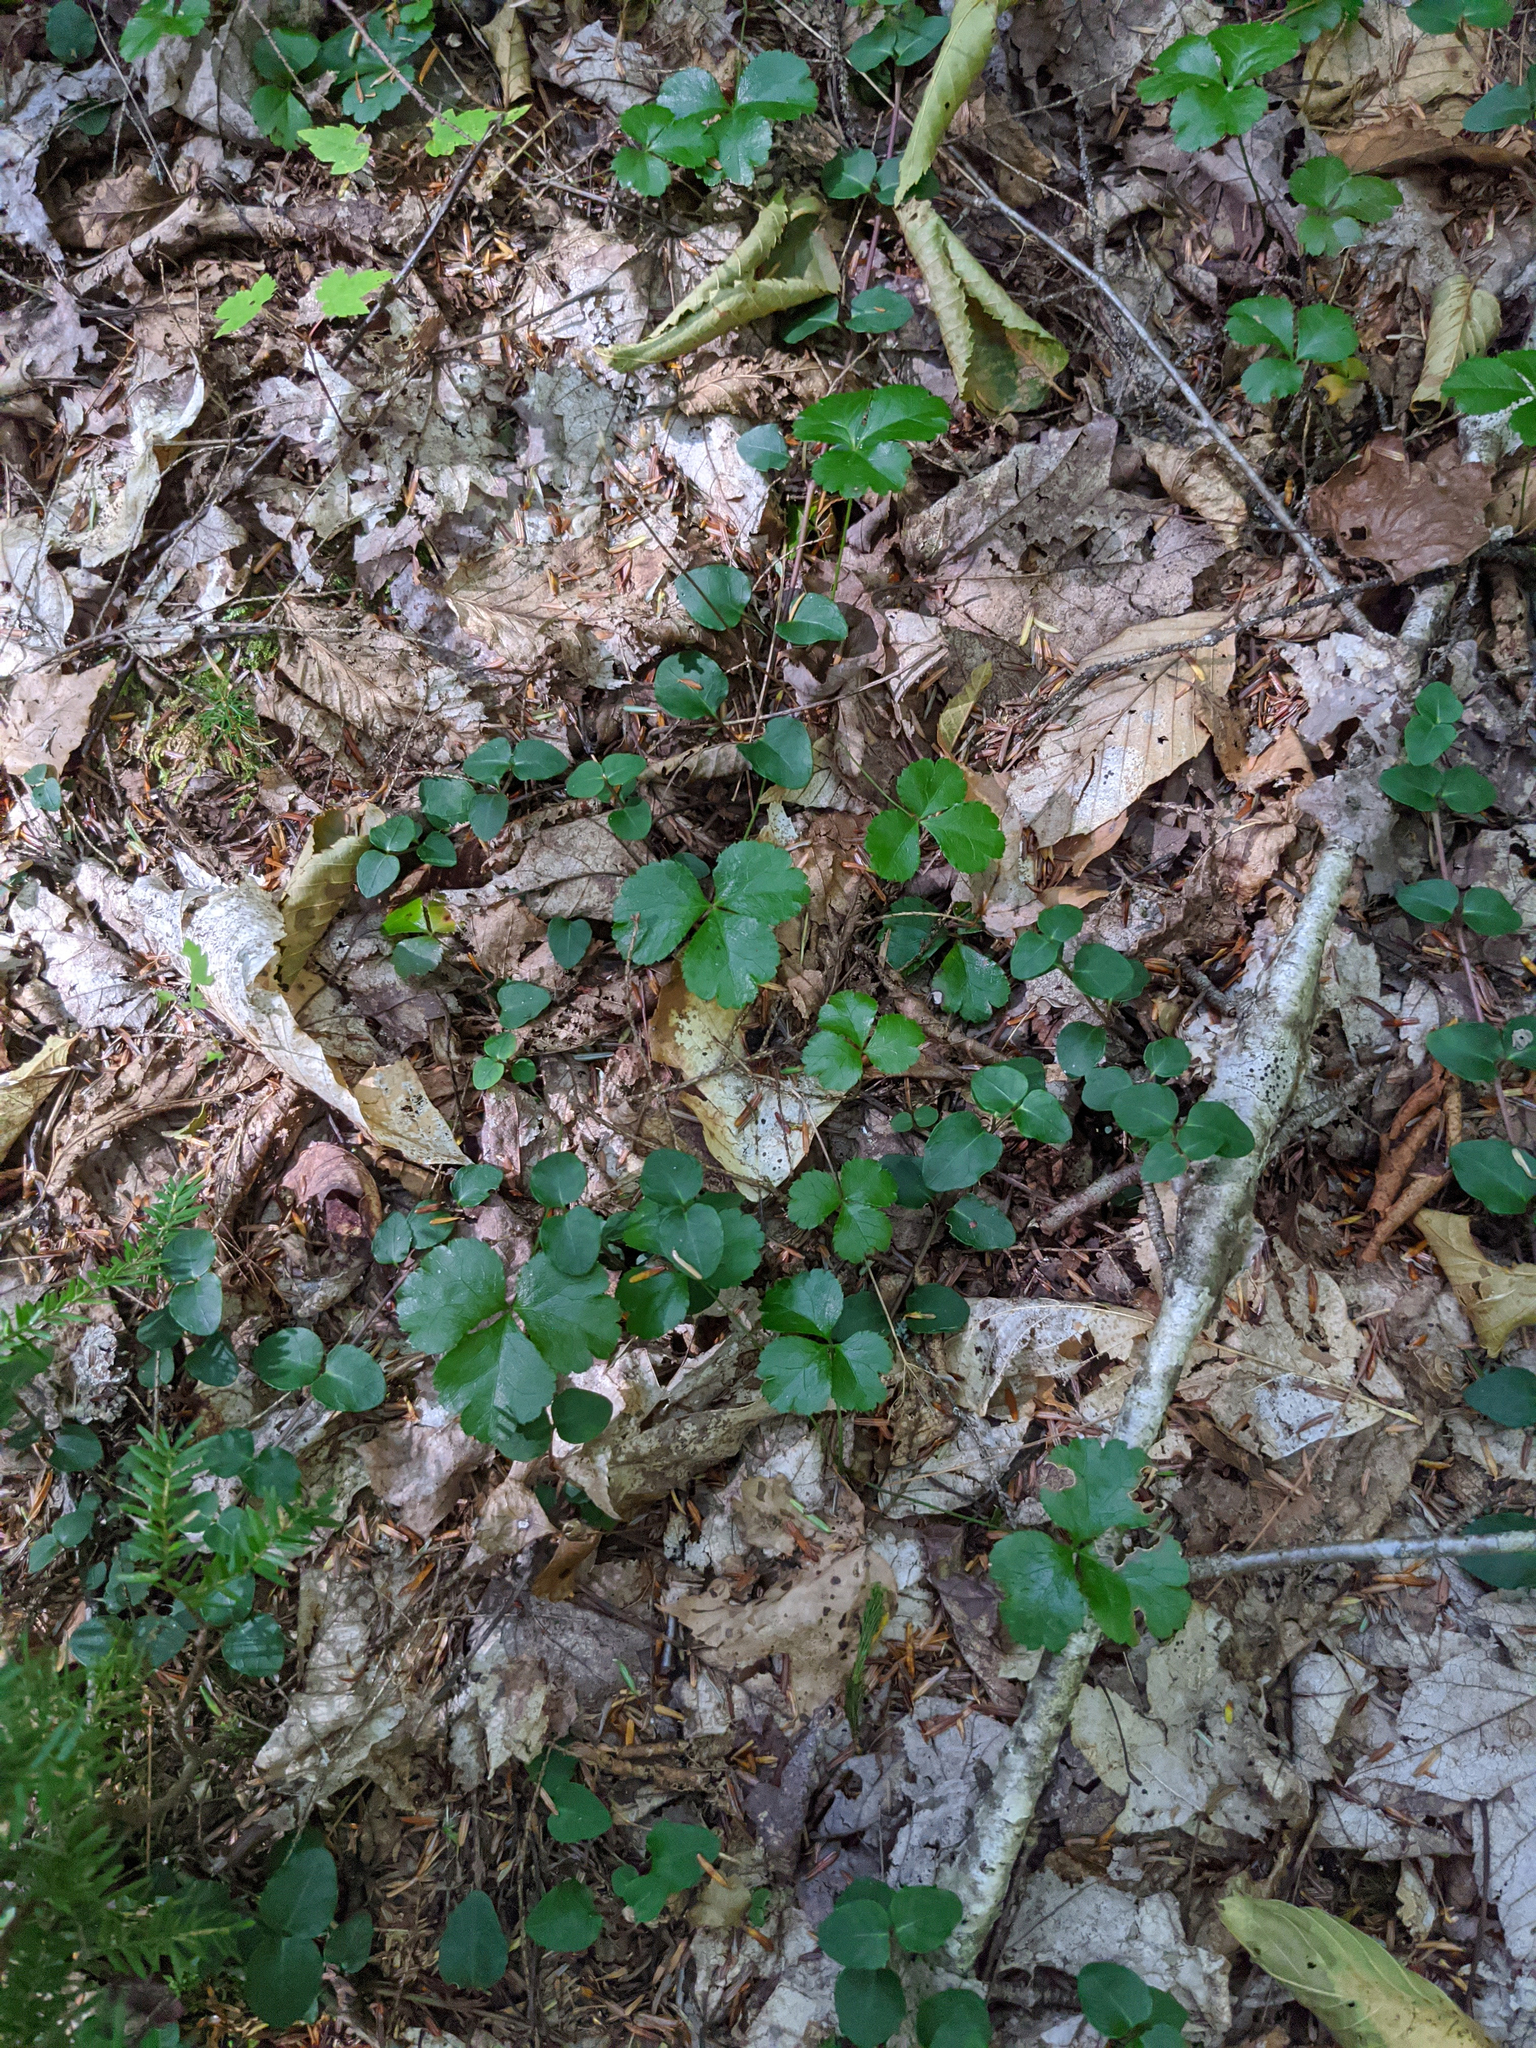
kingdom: Plantae
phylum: Tracheophyta
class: Magnoliopsida
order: Ranunculales
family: Ranunculaceae
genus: Coptis
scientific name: Coptis trifolia
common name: Canker-root
